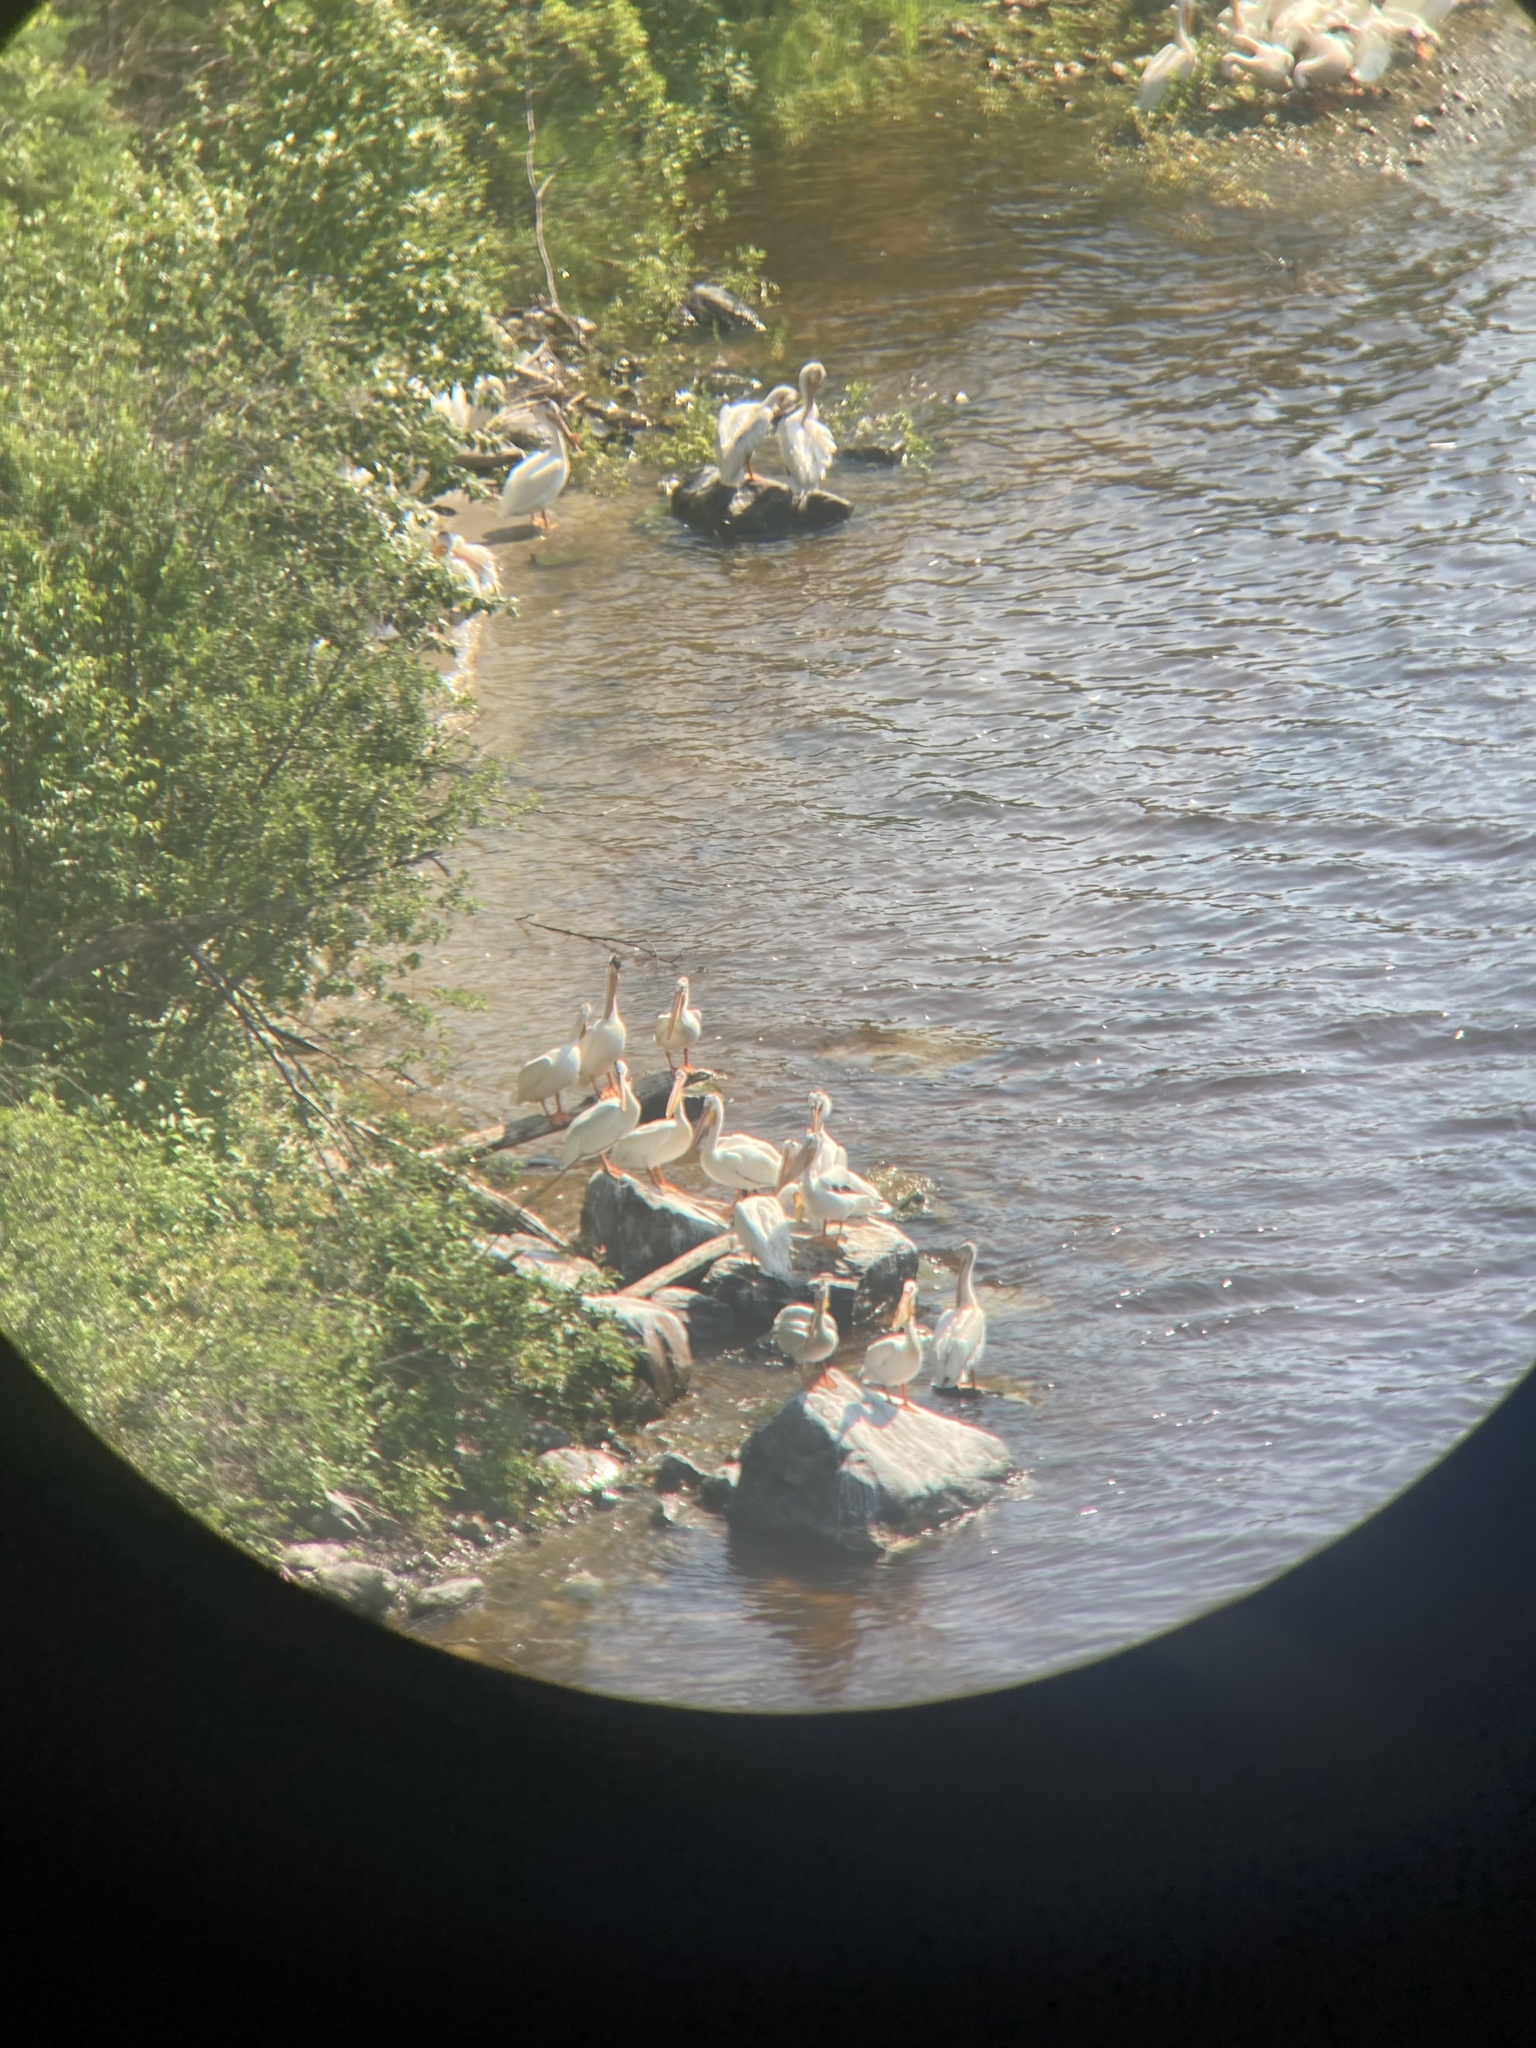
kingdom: Animalia
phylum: Chordata
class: Aves
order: Pelecaniformes
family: Pelecanidae
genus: Pelecanus
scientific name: Pelecanus erythrorhynchos
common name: American white pelican
